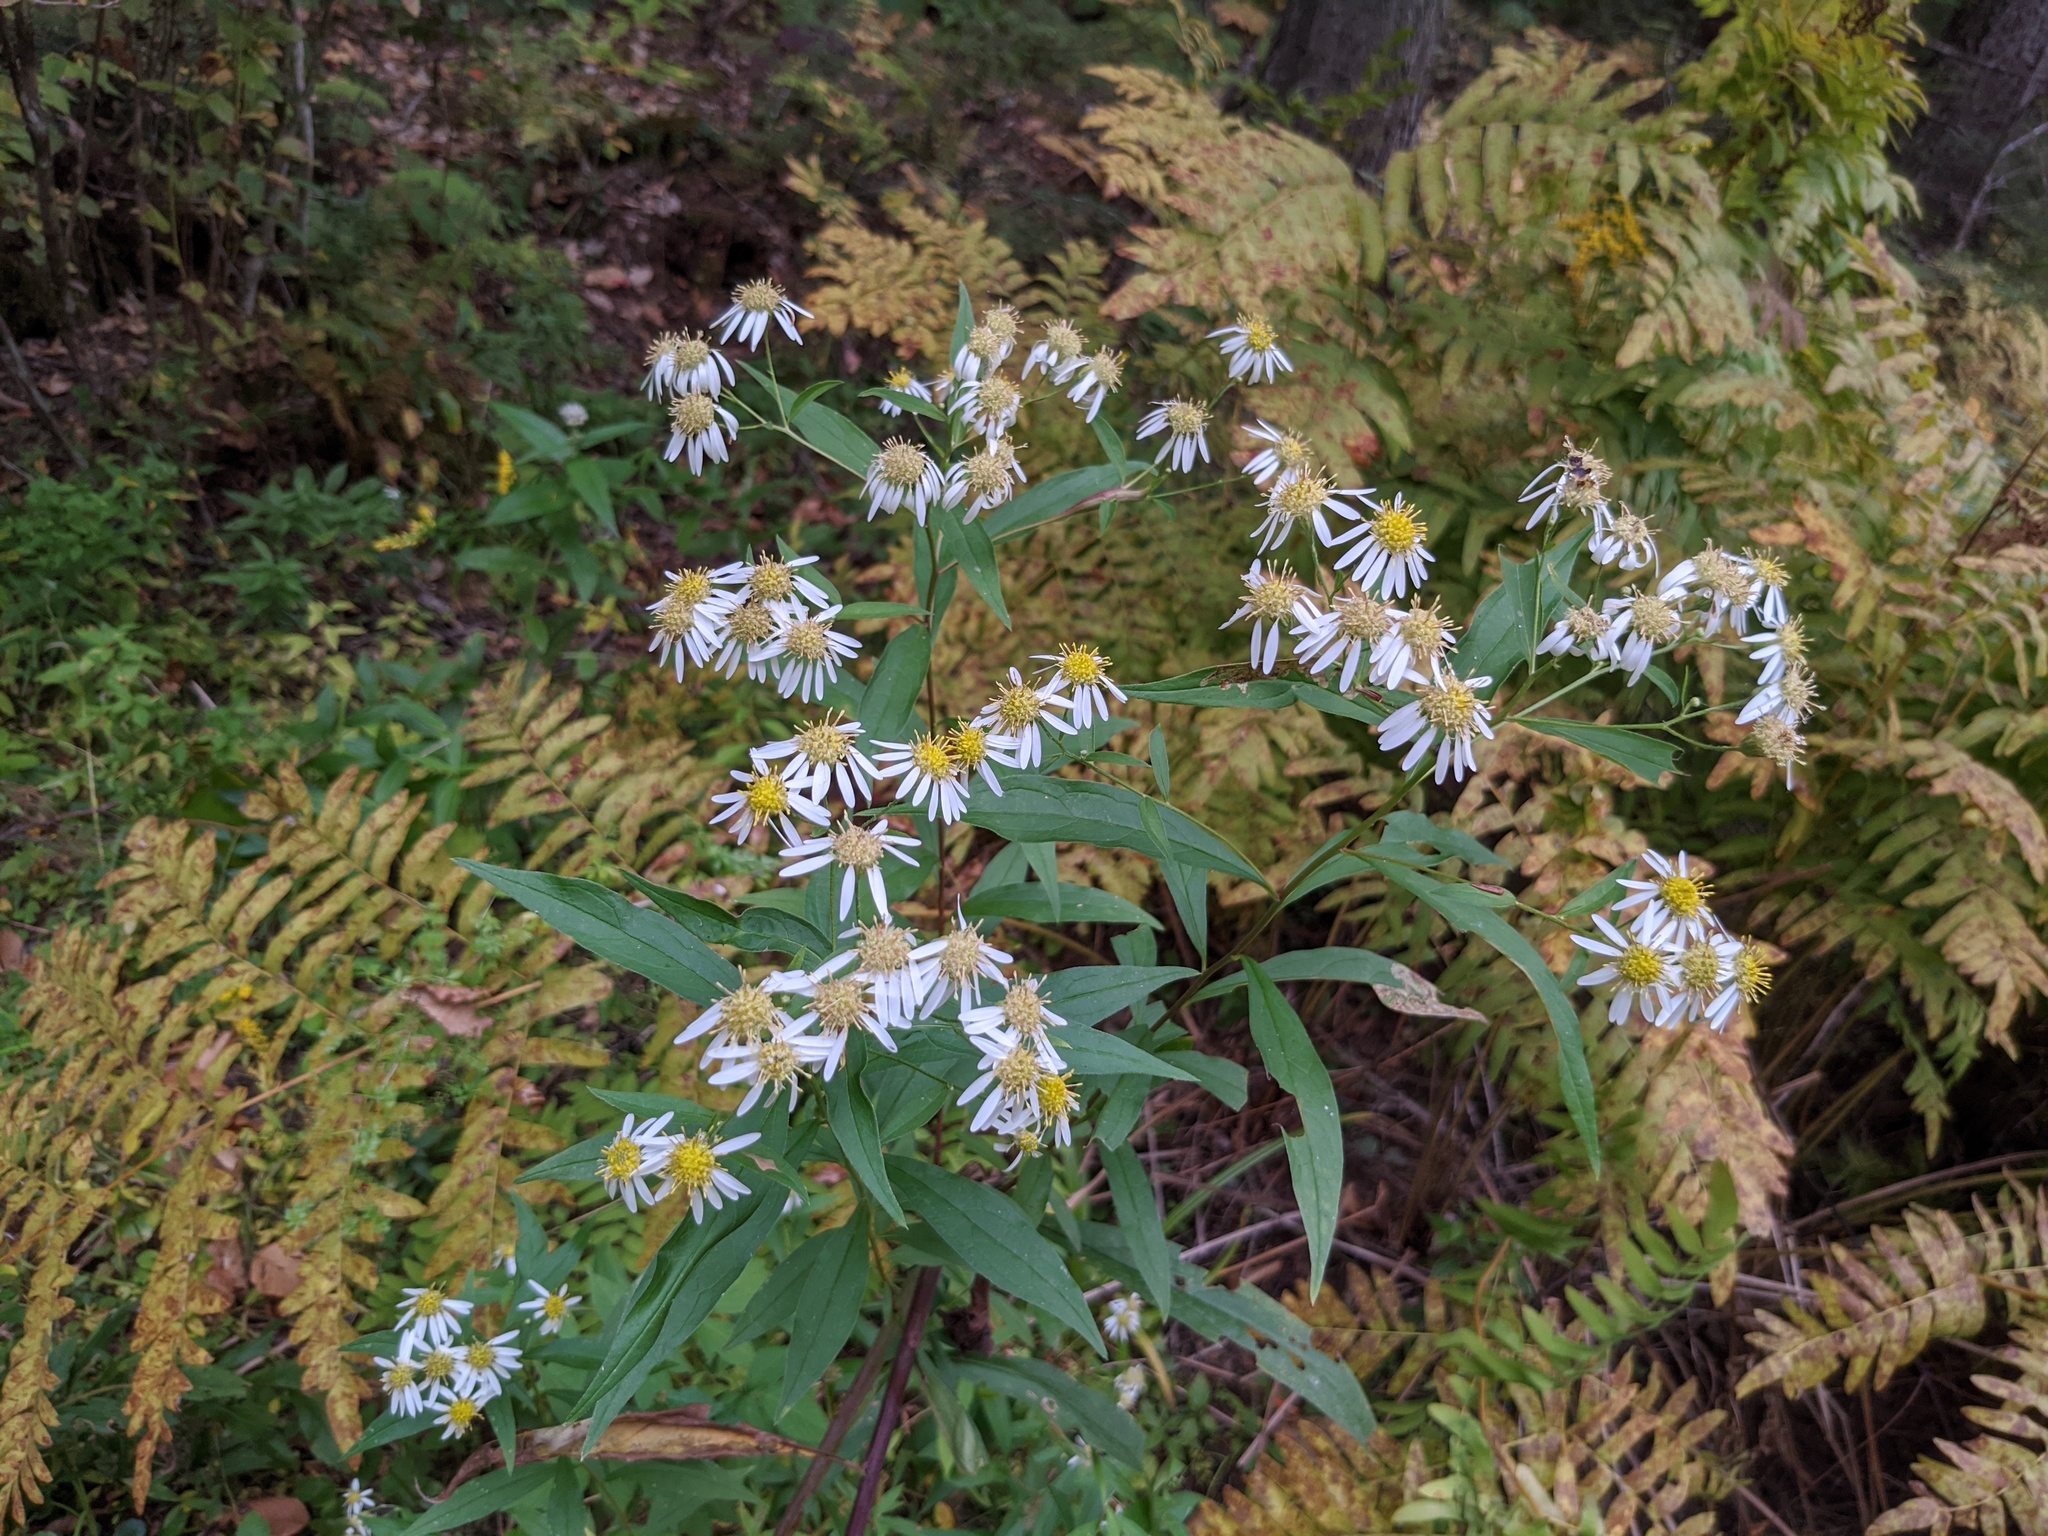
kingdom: Plantae
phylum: Tracheophyta
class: Magnoliopsida
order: Asterales
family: Asteraceae
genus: Doellingeria
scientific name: Doellingeria umbellata
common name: Flat-top white aster
